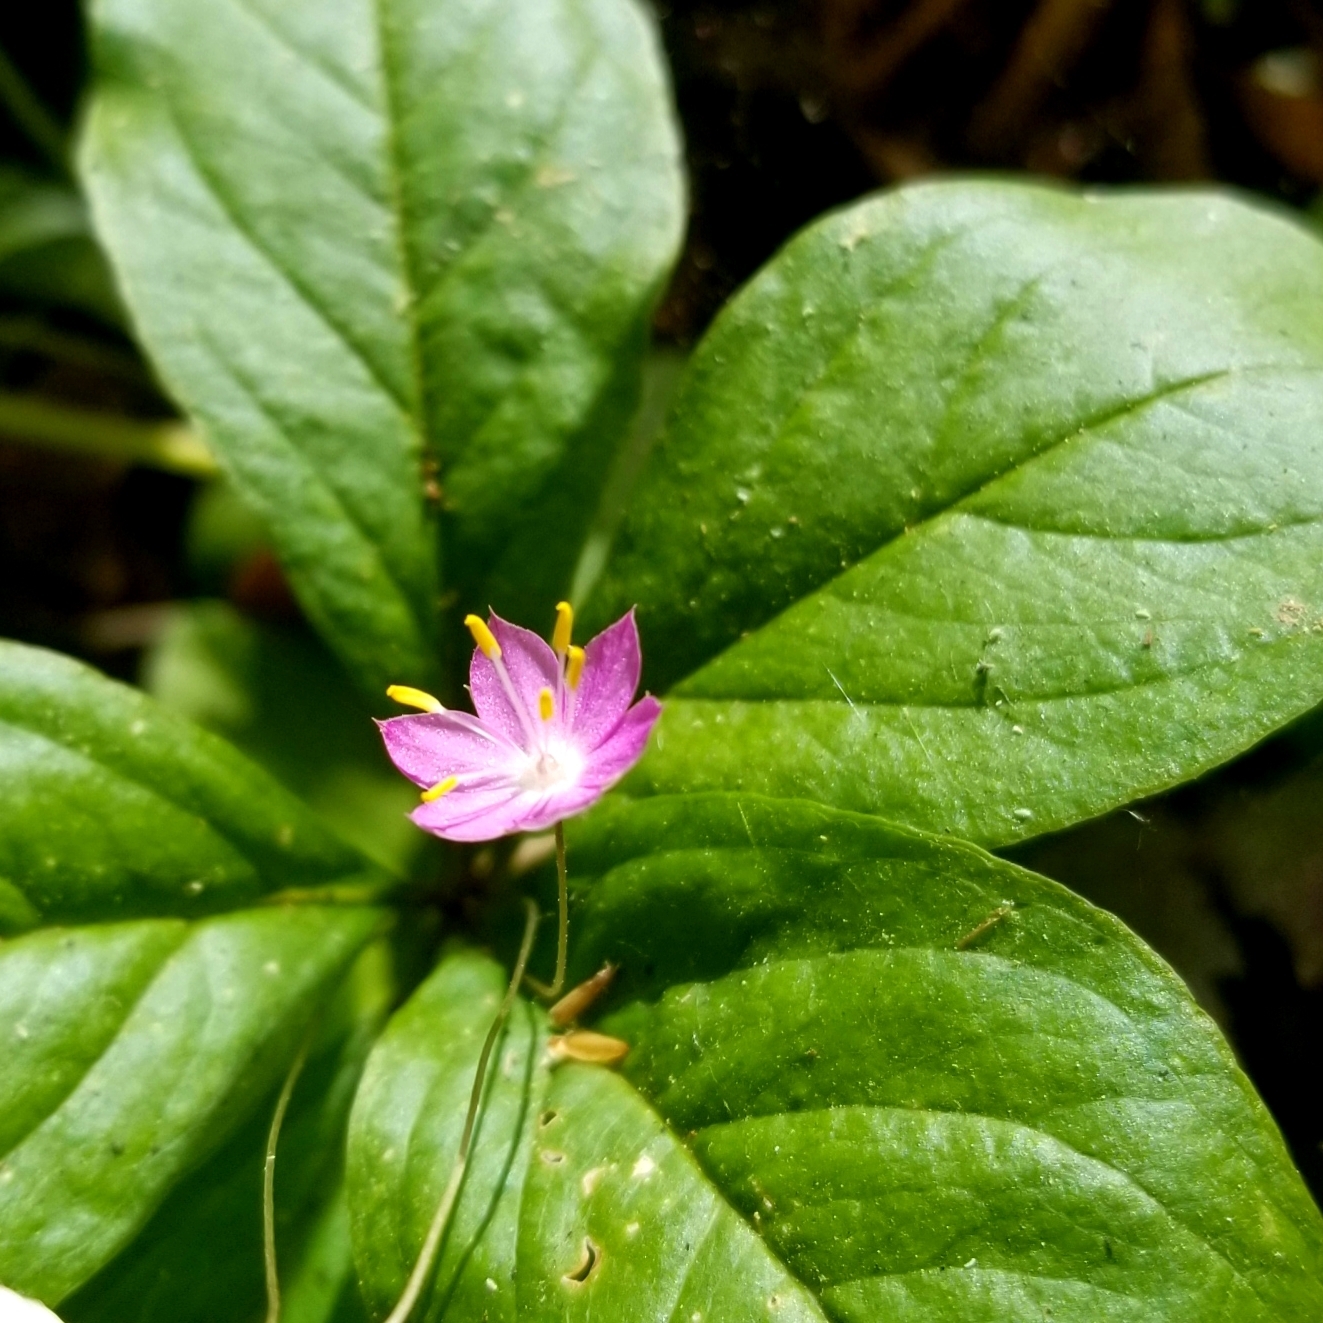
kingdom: Plantae
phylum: Tracheophyta
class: Magnoliopsida
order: Ericales
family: Primulaceae
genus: Lysimachia
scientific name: Lysimachia latifolia
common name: Pacific starflower
